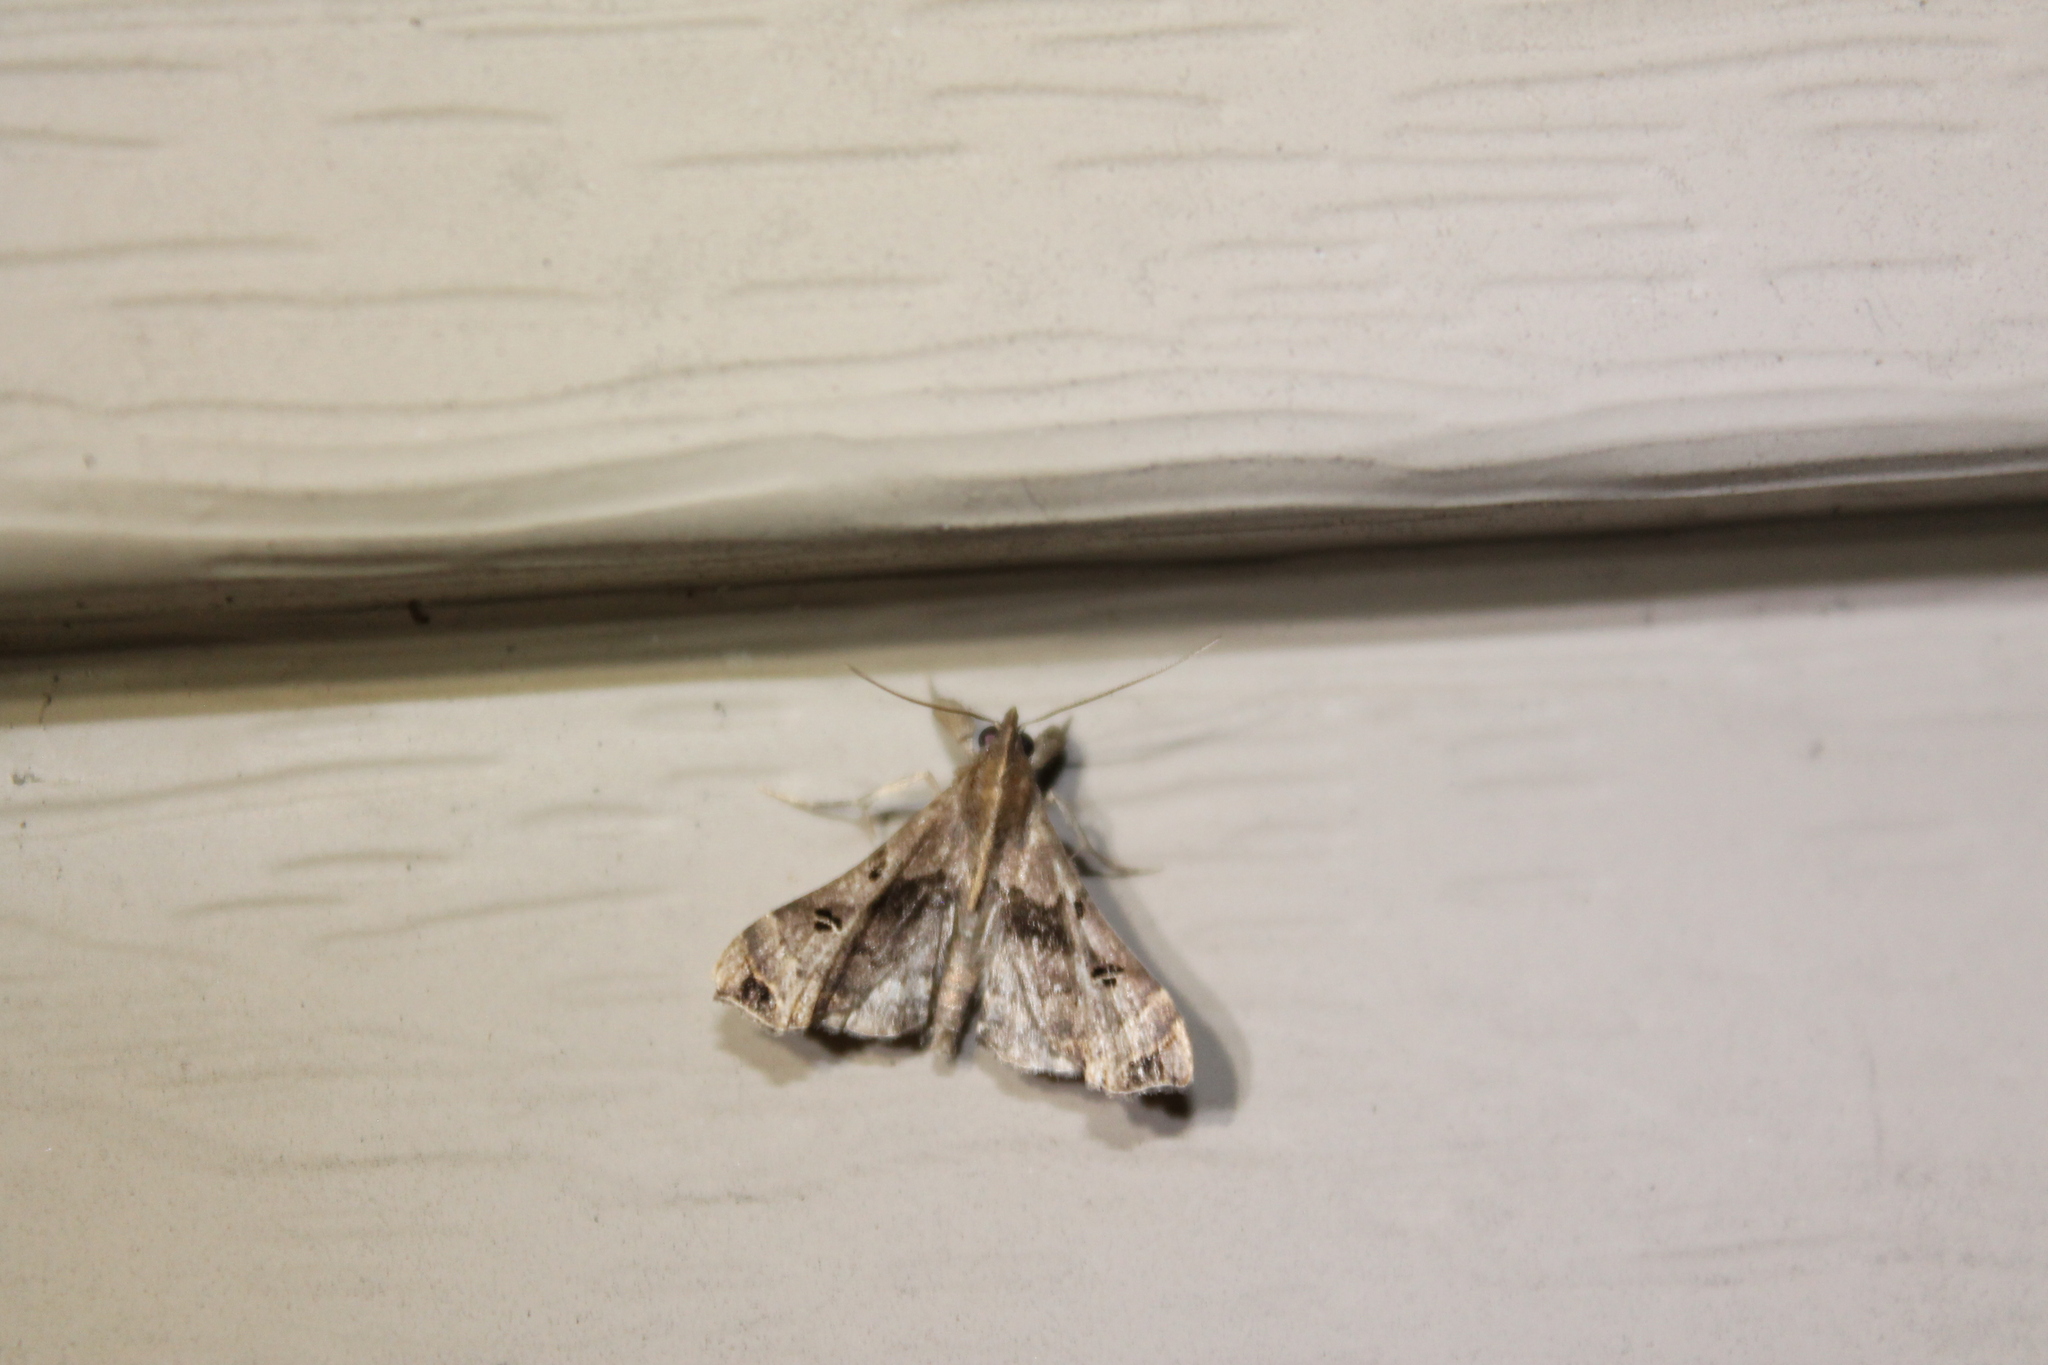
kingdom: Animalia
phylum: Arthropoda
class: Insecta
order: Lepidoptera
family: Erebidae
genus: Palthis
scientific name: Palthis asopialis
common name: Faint-spotted palthis moth
